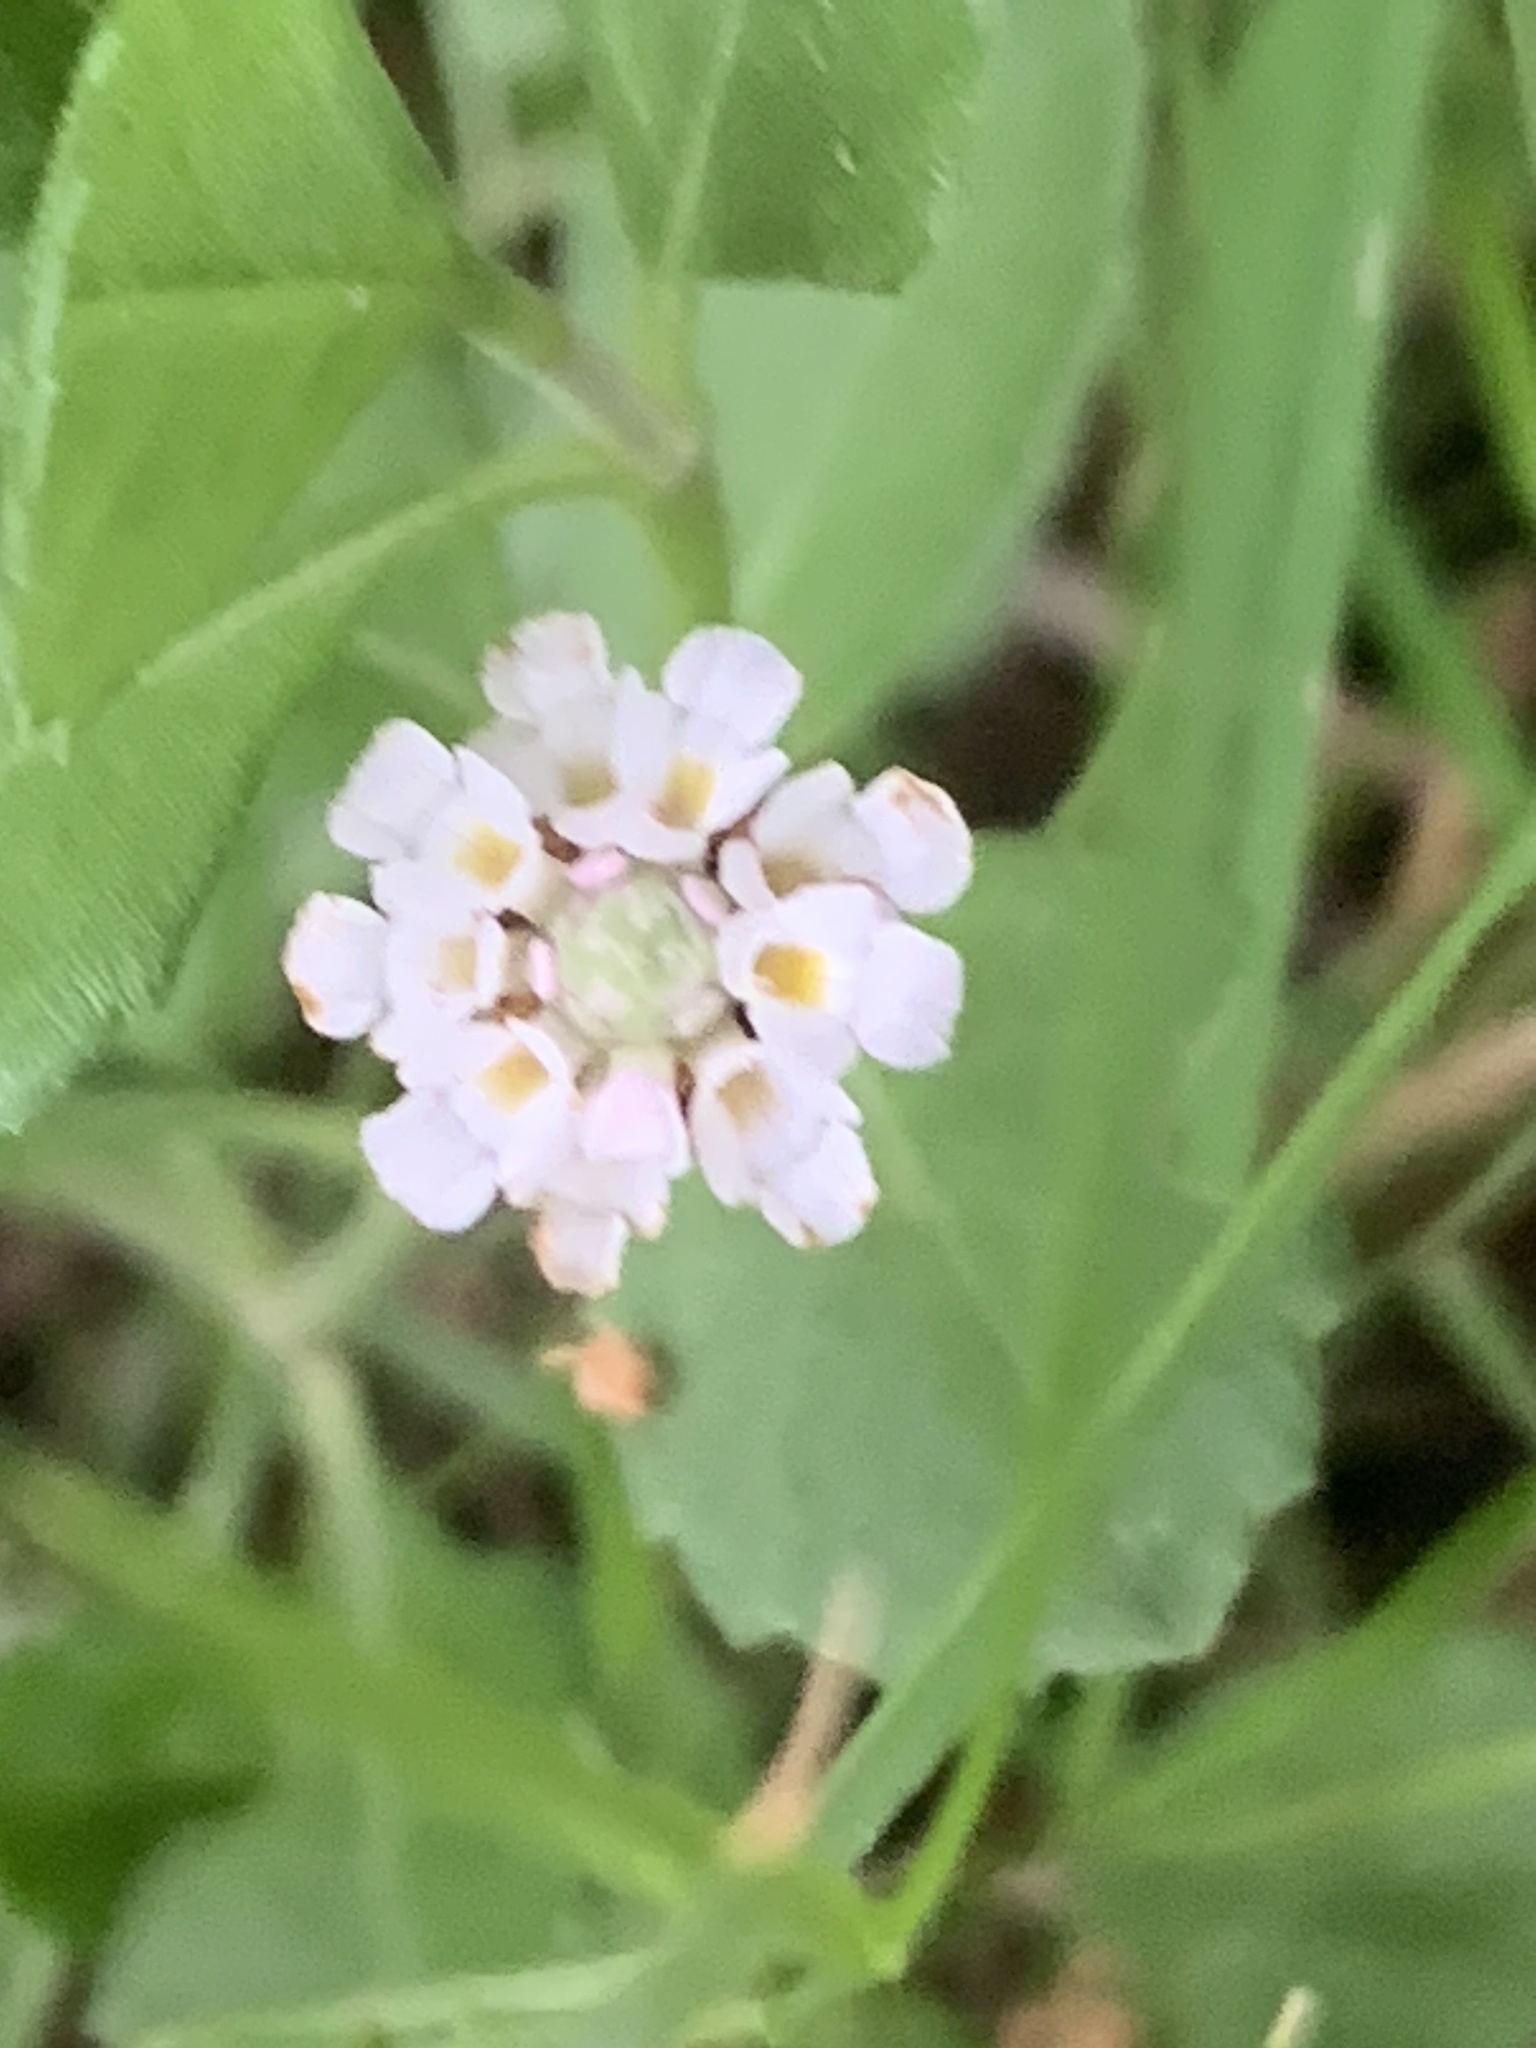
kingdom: Plantae
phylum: Tracheophyta
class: Magnoliopsida
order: Lamiales
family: Verbenaceae
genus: Phyla
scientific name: Phyla nodiflora
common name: Frogfruit
